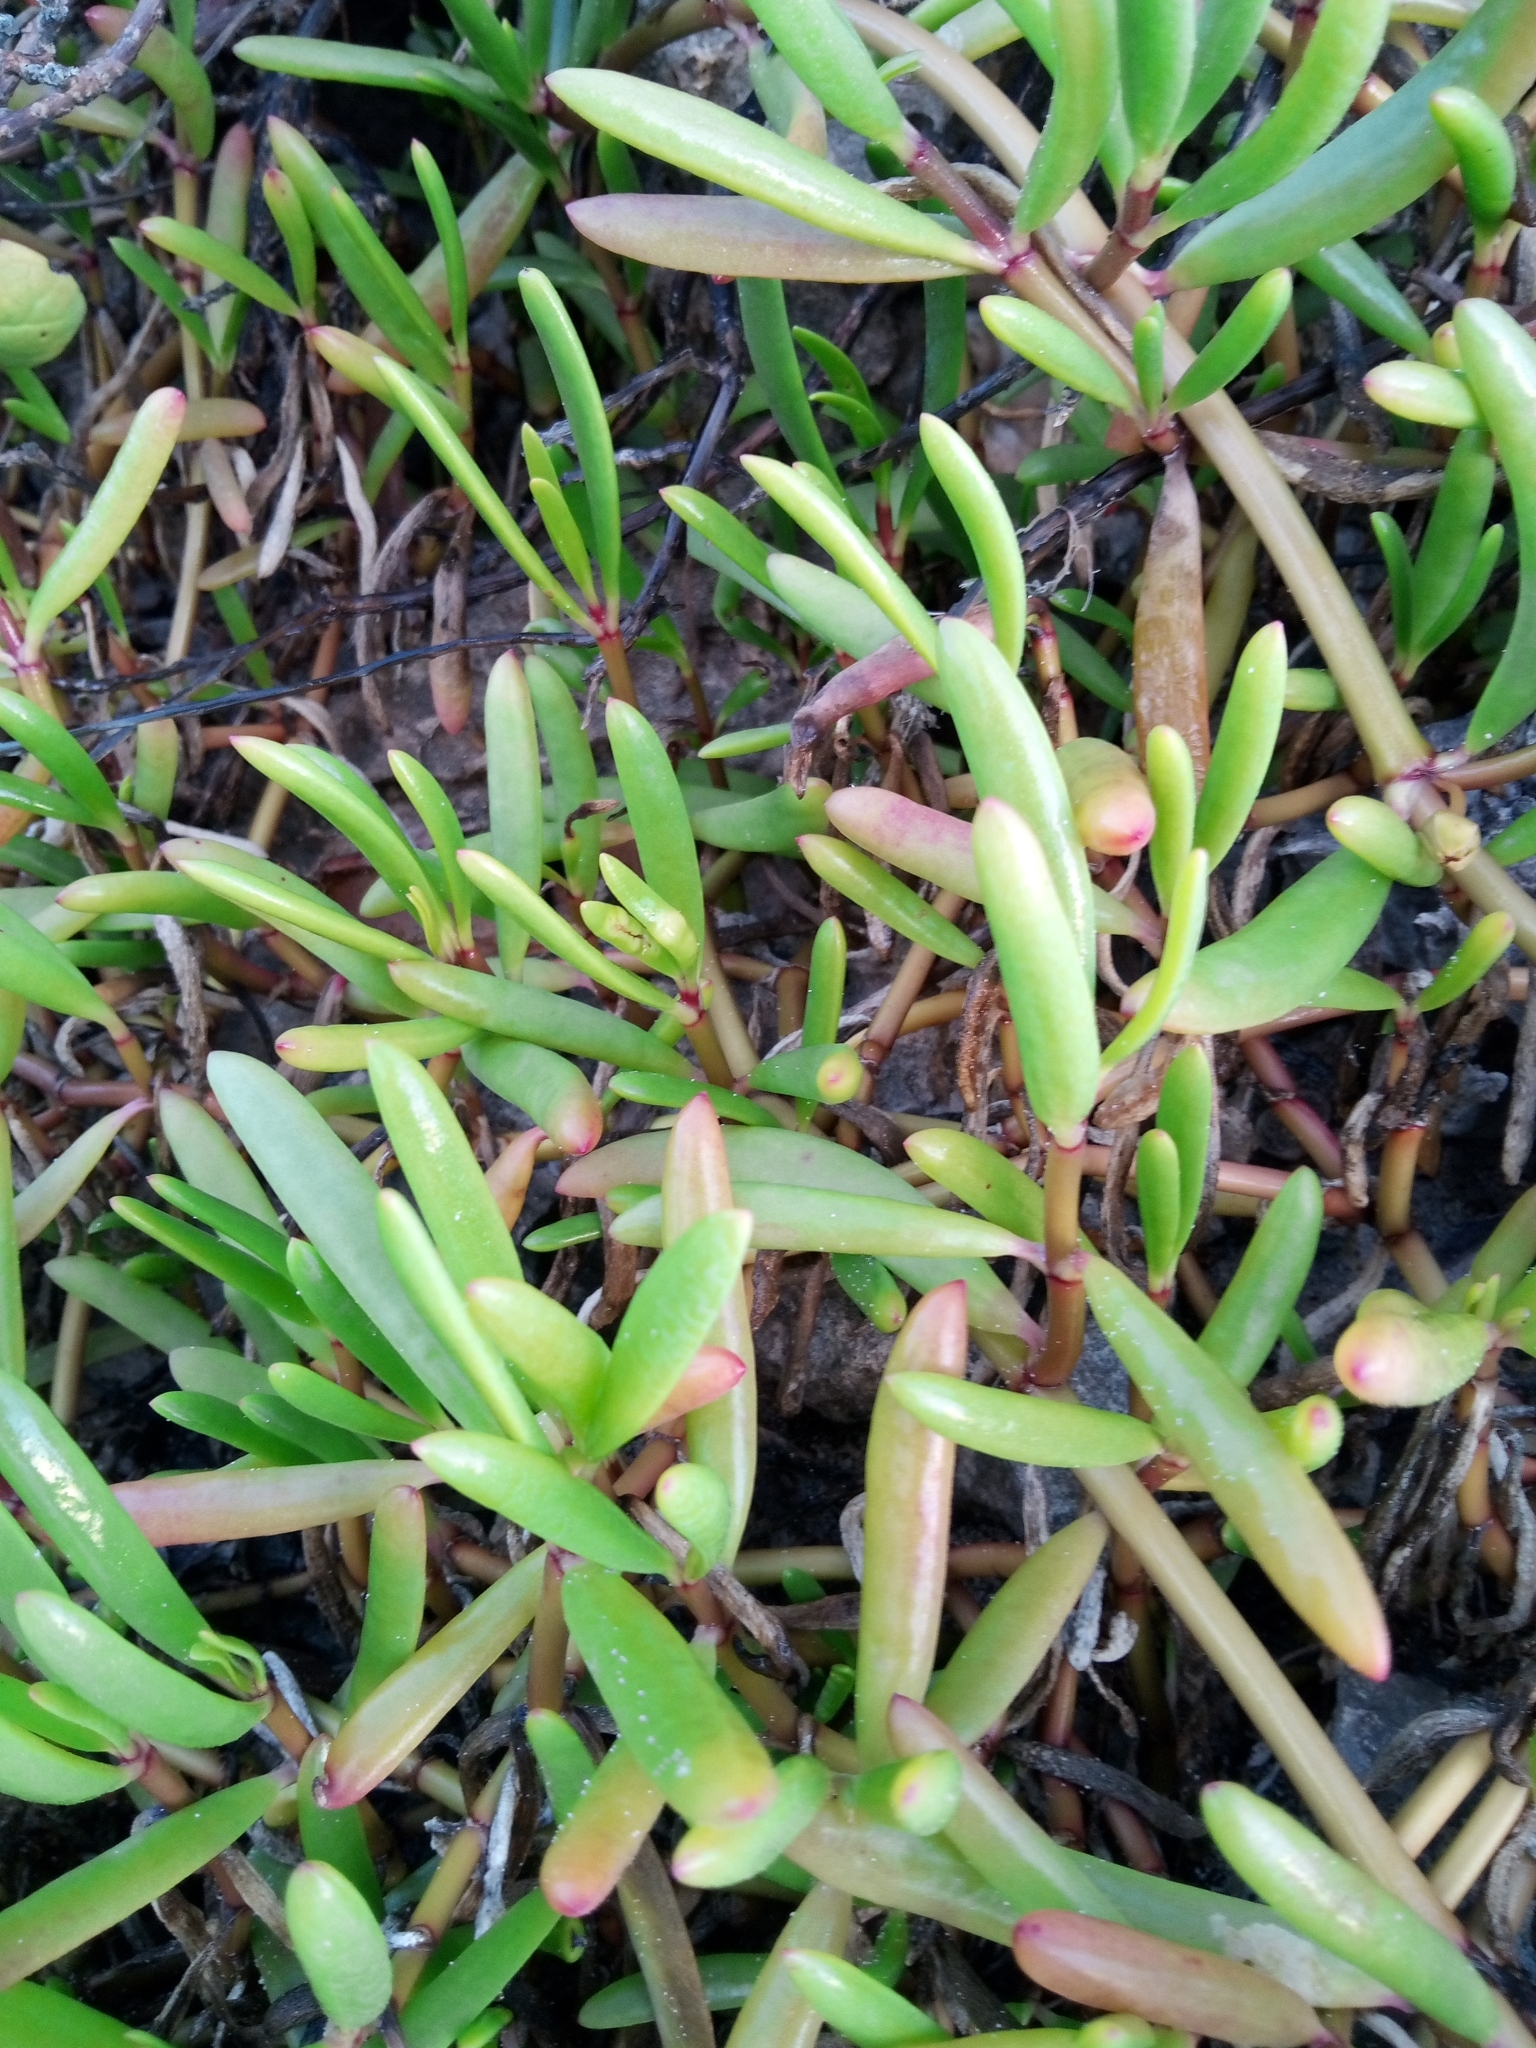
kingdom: Plantae
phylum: Tracheophyta
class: Magnoliopsida
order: Caryophyllales
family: Aizoaceae
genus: Sesuvium
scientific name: Sesuvium portulacastrum
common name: Sea-purslane
